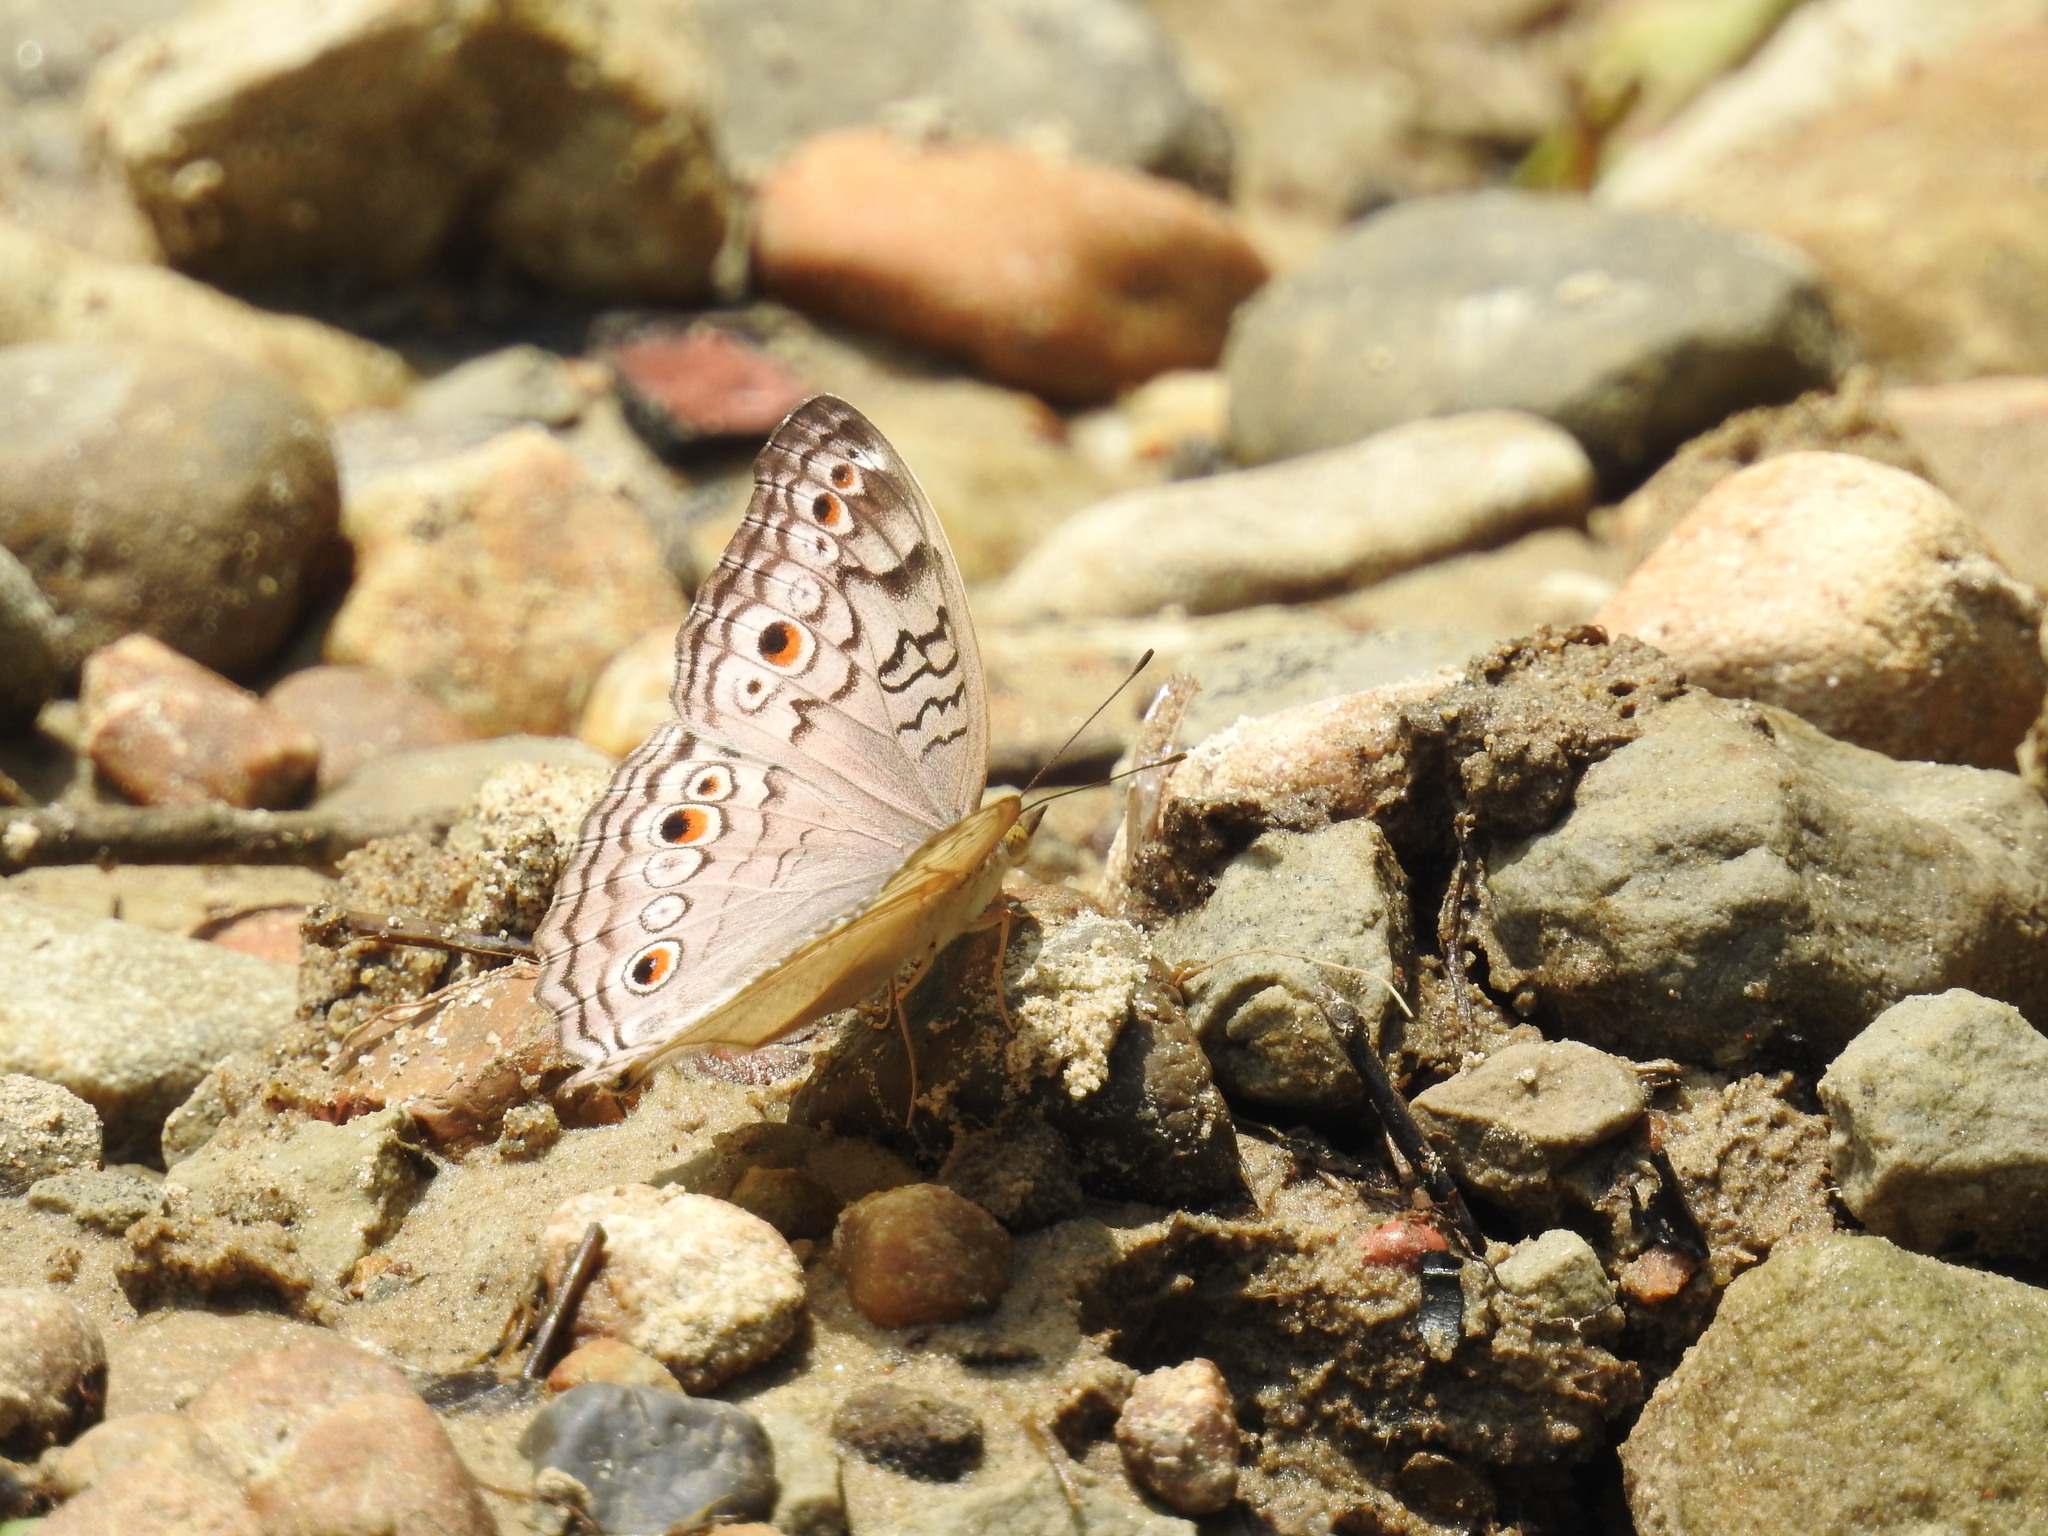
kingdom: Animalia
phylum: Arthropoda
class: Insecta
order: Lepidoptera
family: Nymphalidae
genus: Junonia
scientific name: Junonia atlites
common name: Grey pansy
